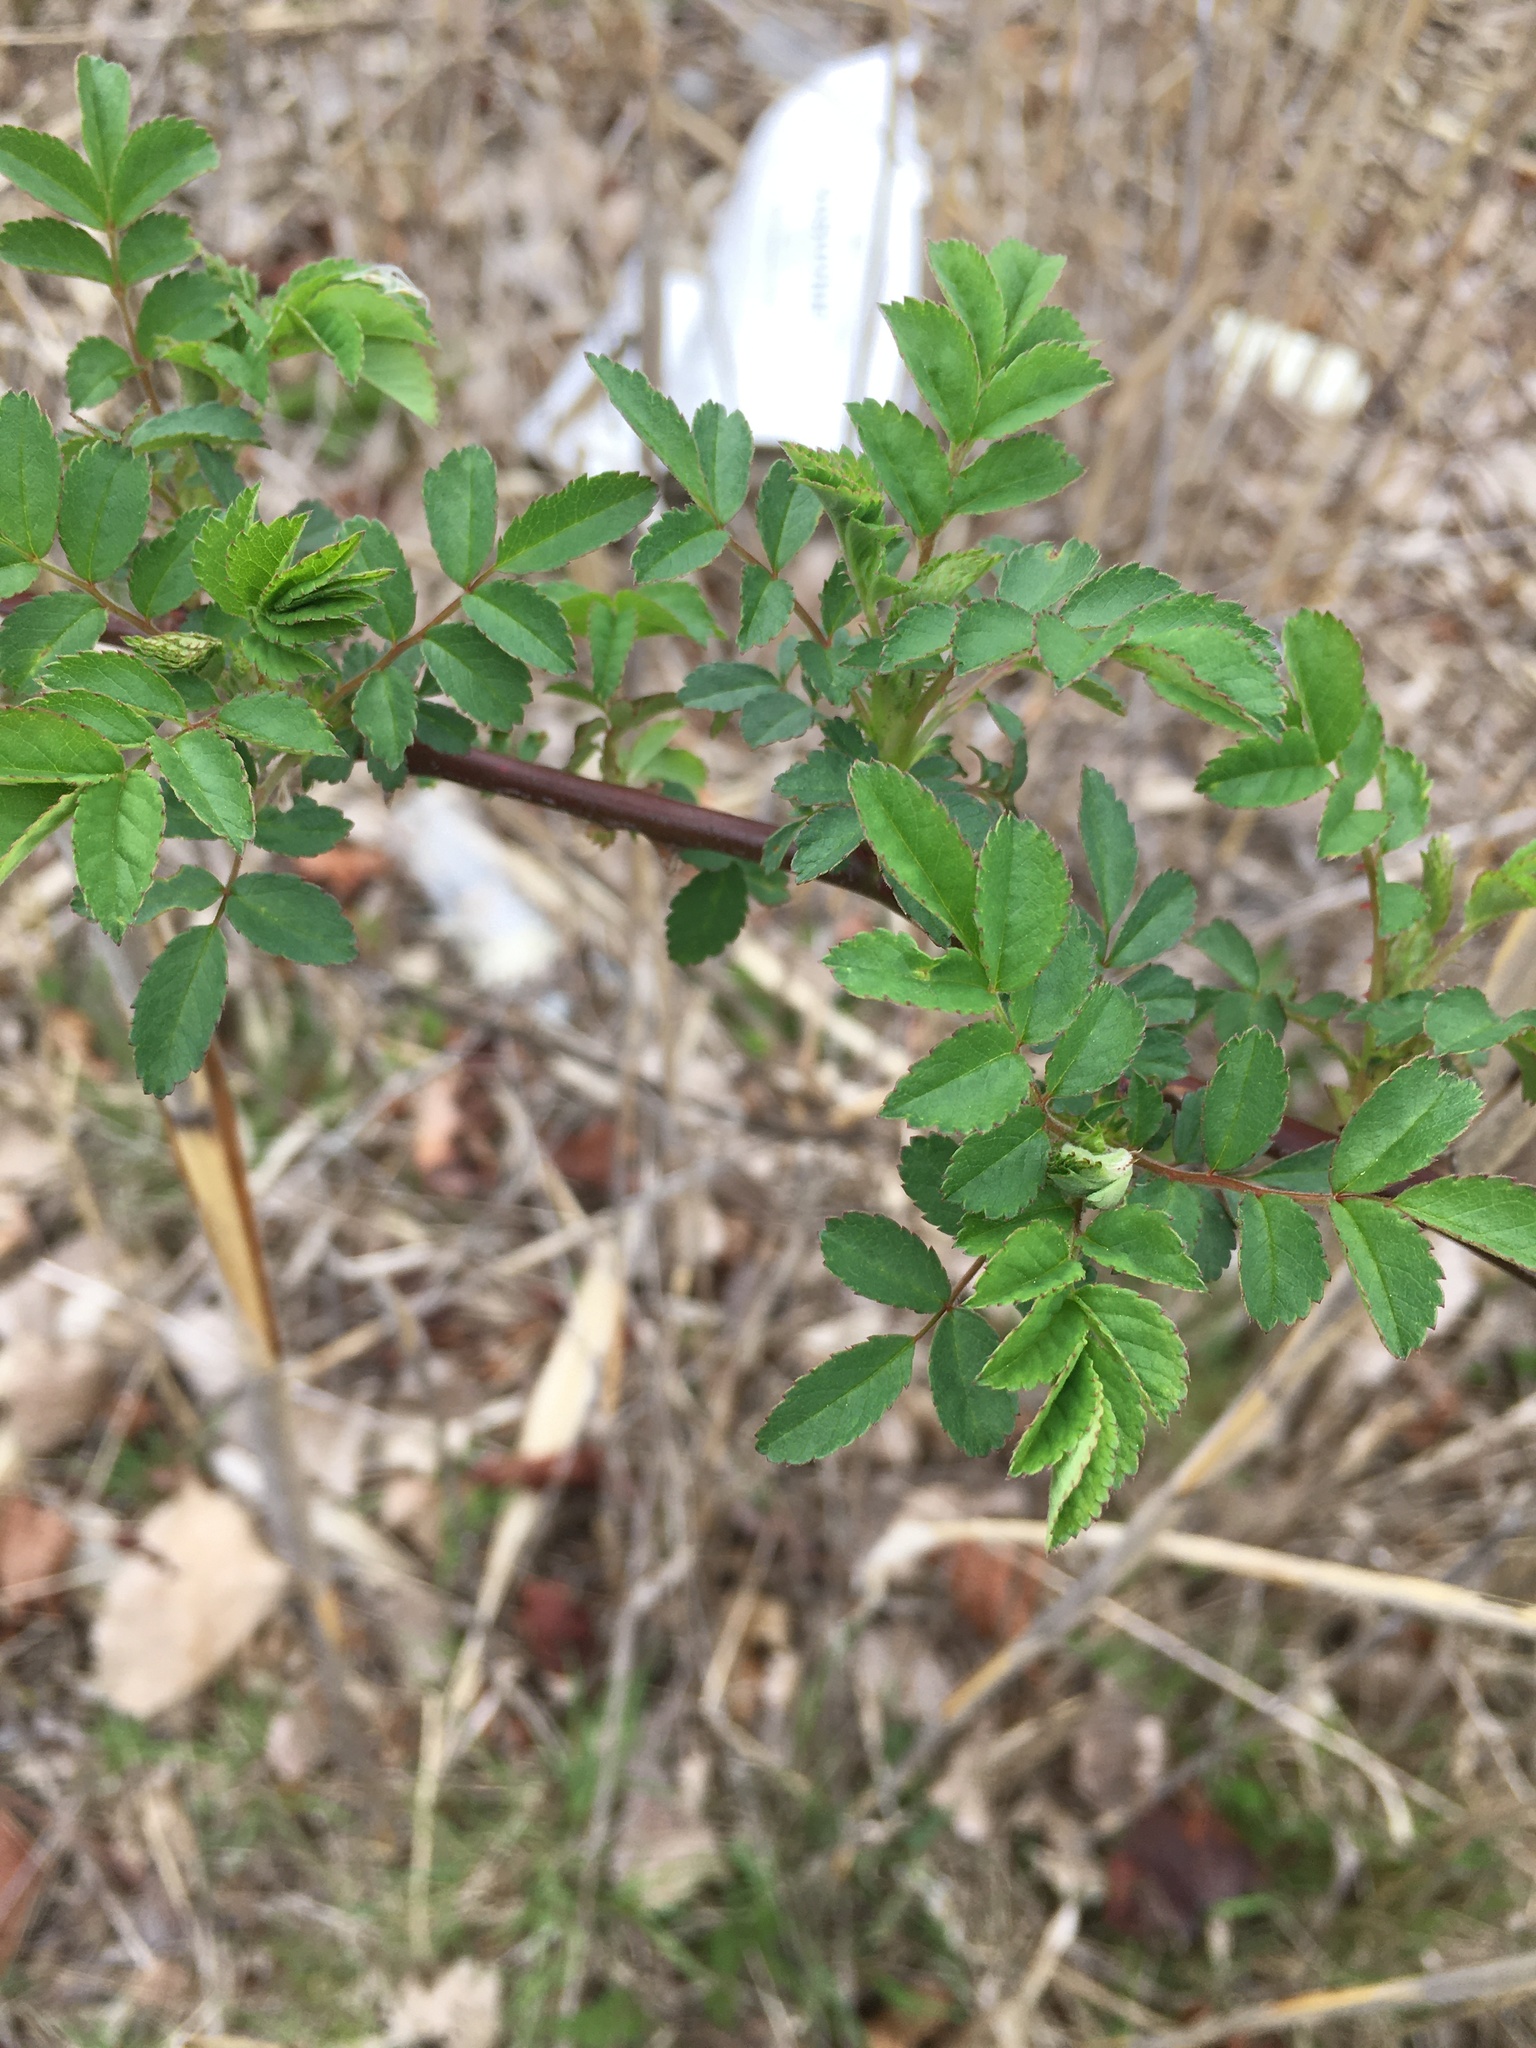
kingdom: Plantae
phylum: Tracheophyta
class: Magnoliopsida
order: Rosales
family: Rosaceae
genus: Rosa
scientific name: Rosa multiflora
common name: Multiflora rose
